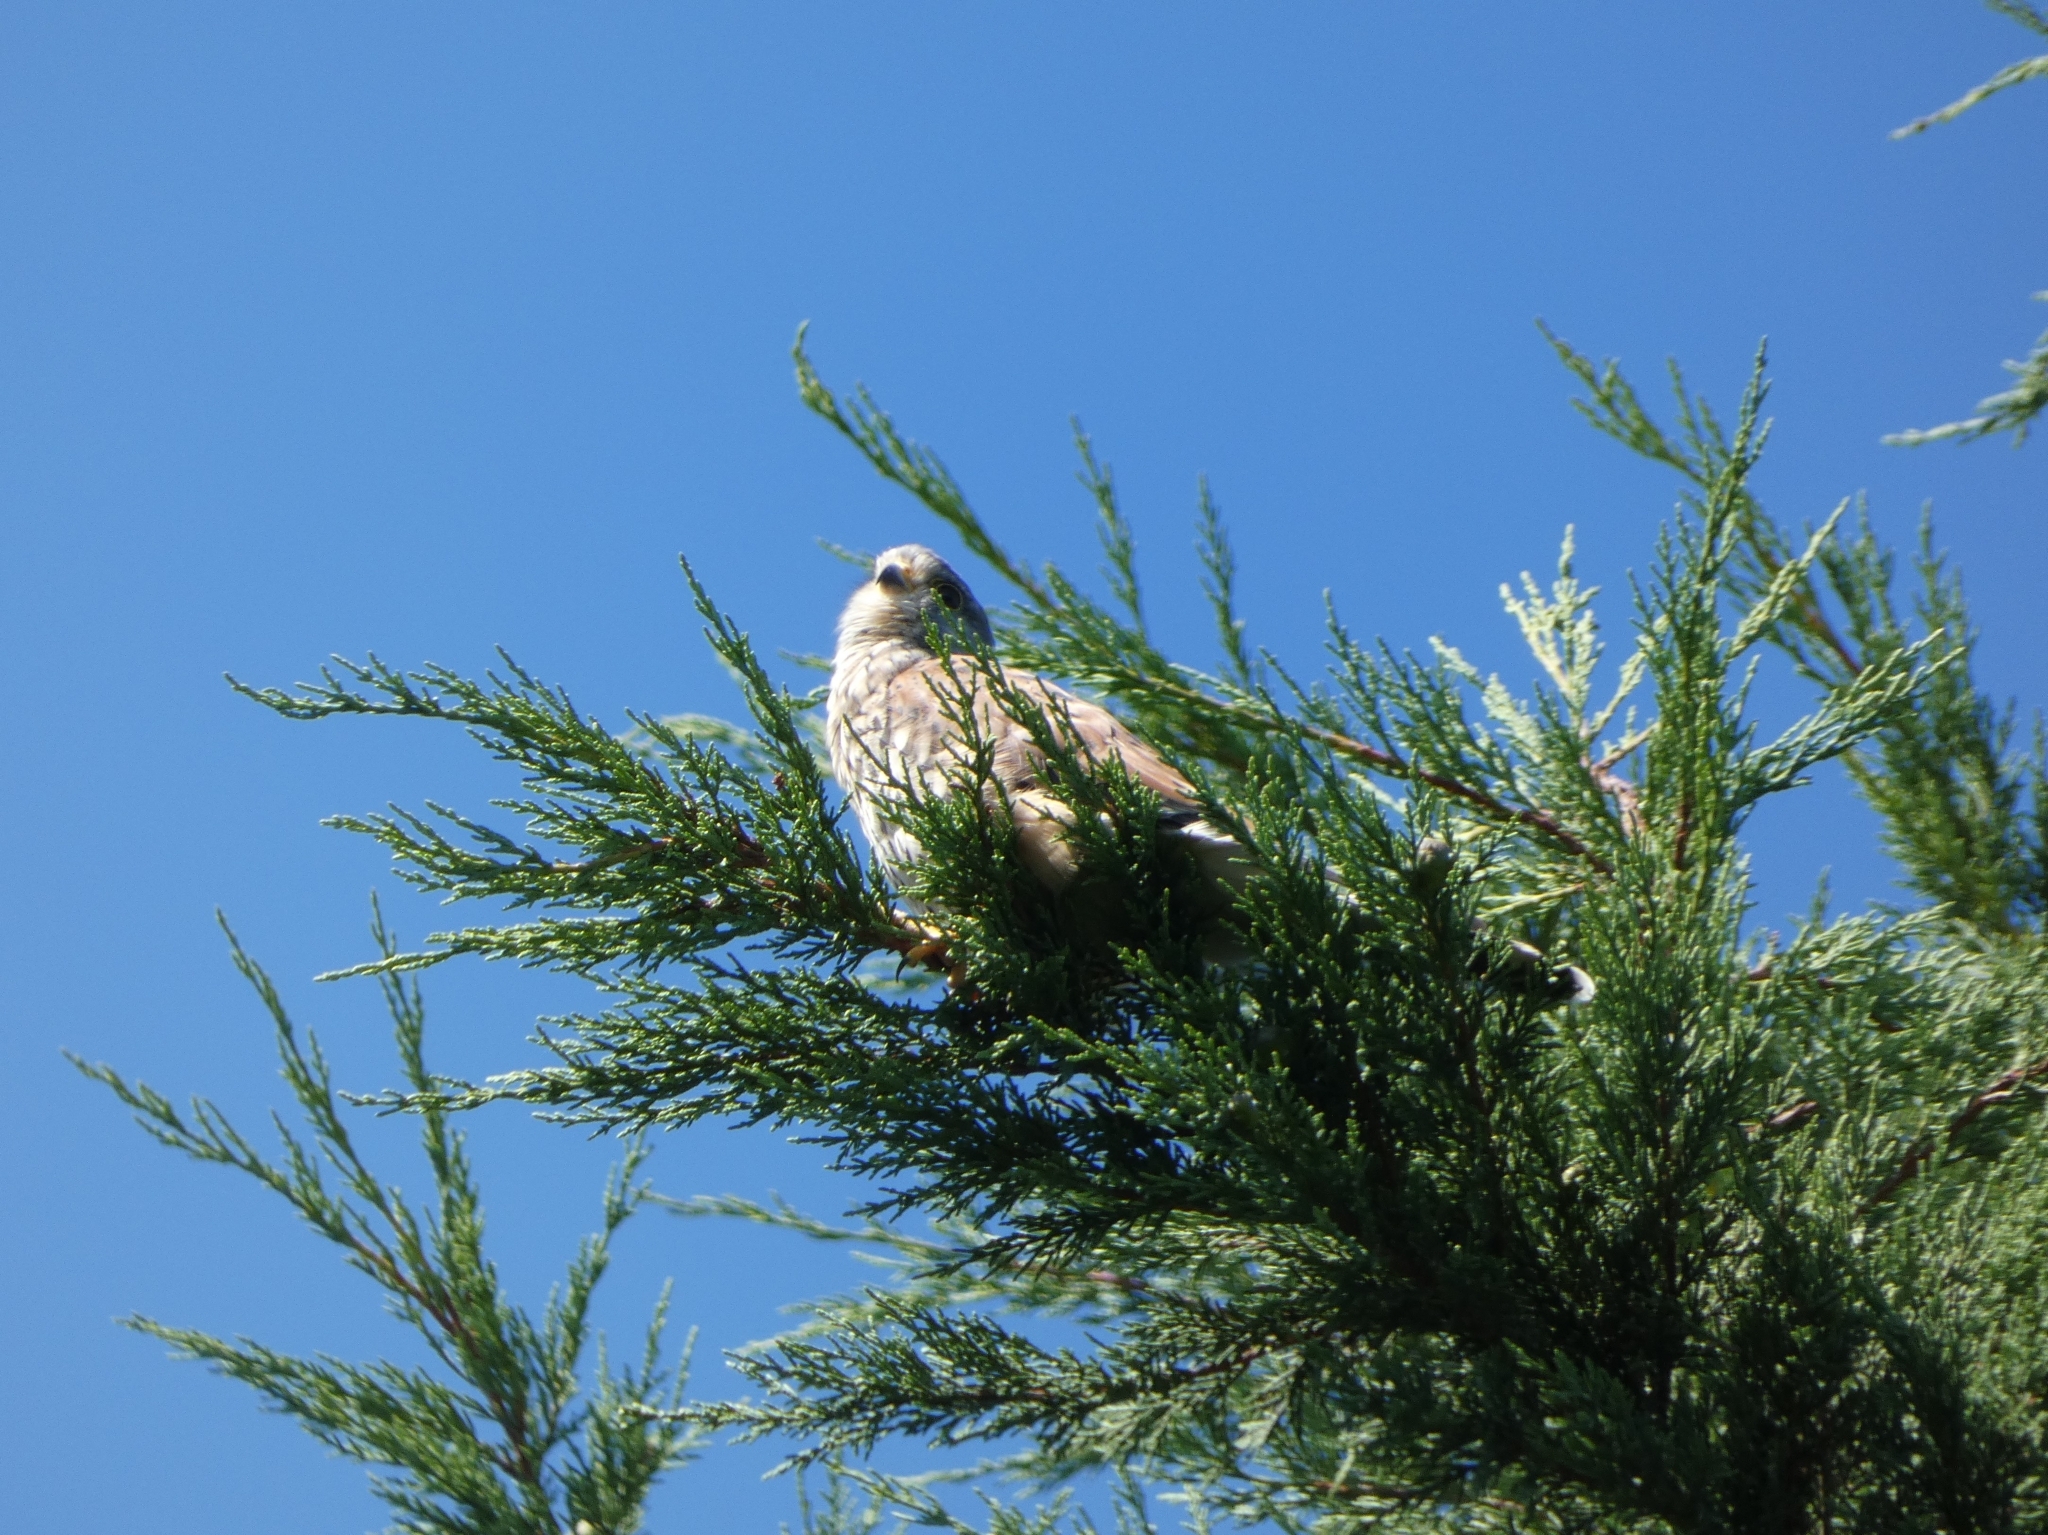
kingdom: Animalia
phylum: Chordata
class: Aves
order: Falconiformes
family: Falconidae
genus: Falco
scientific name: Falco tinnunculus
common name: Common kestrel
